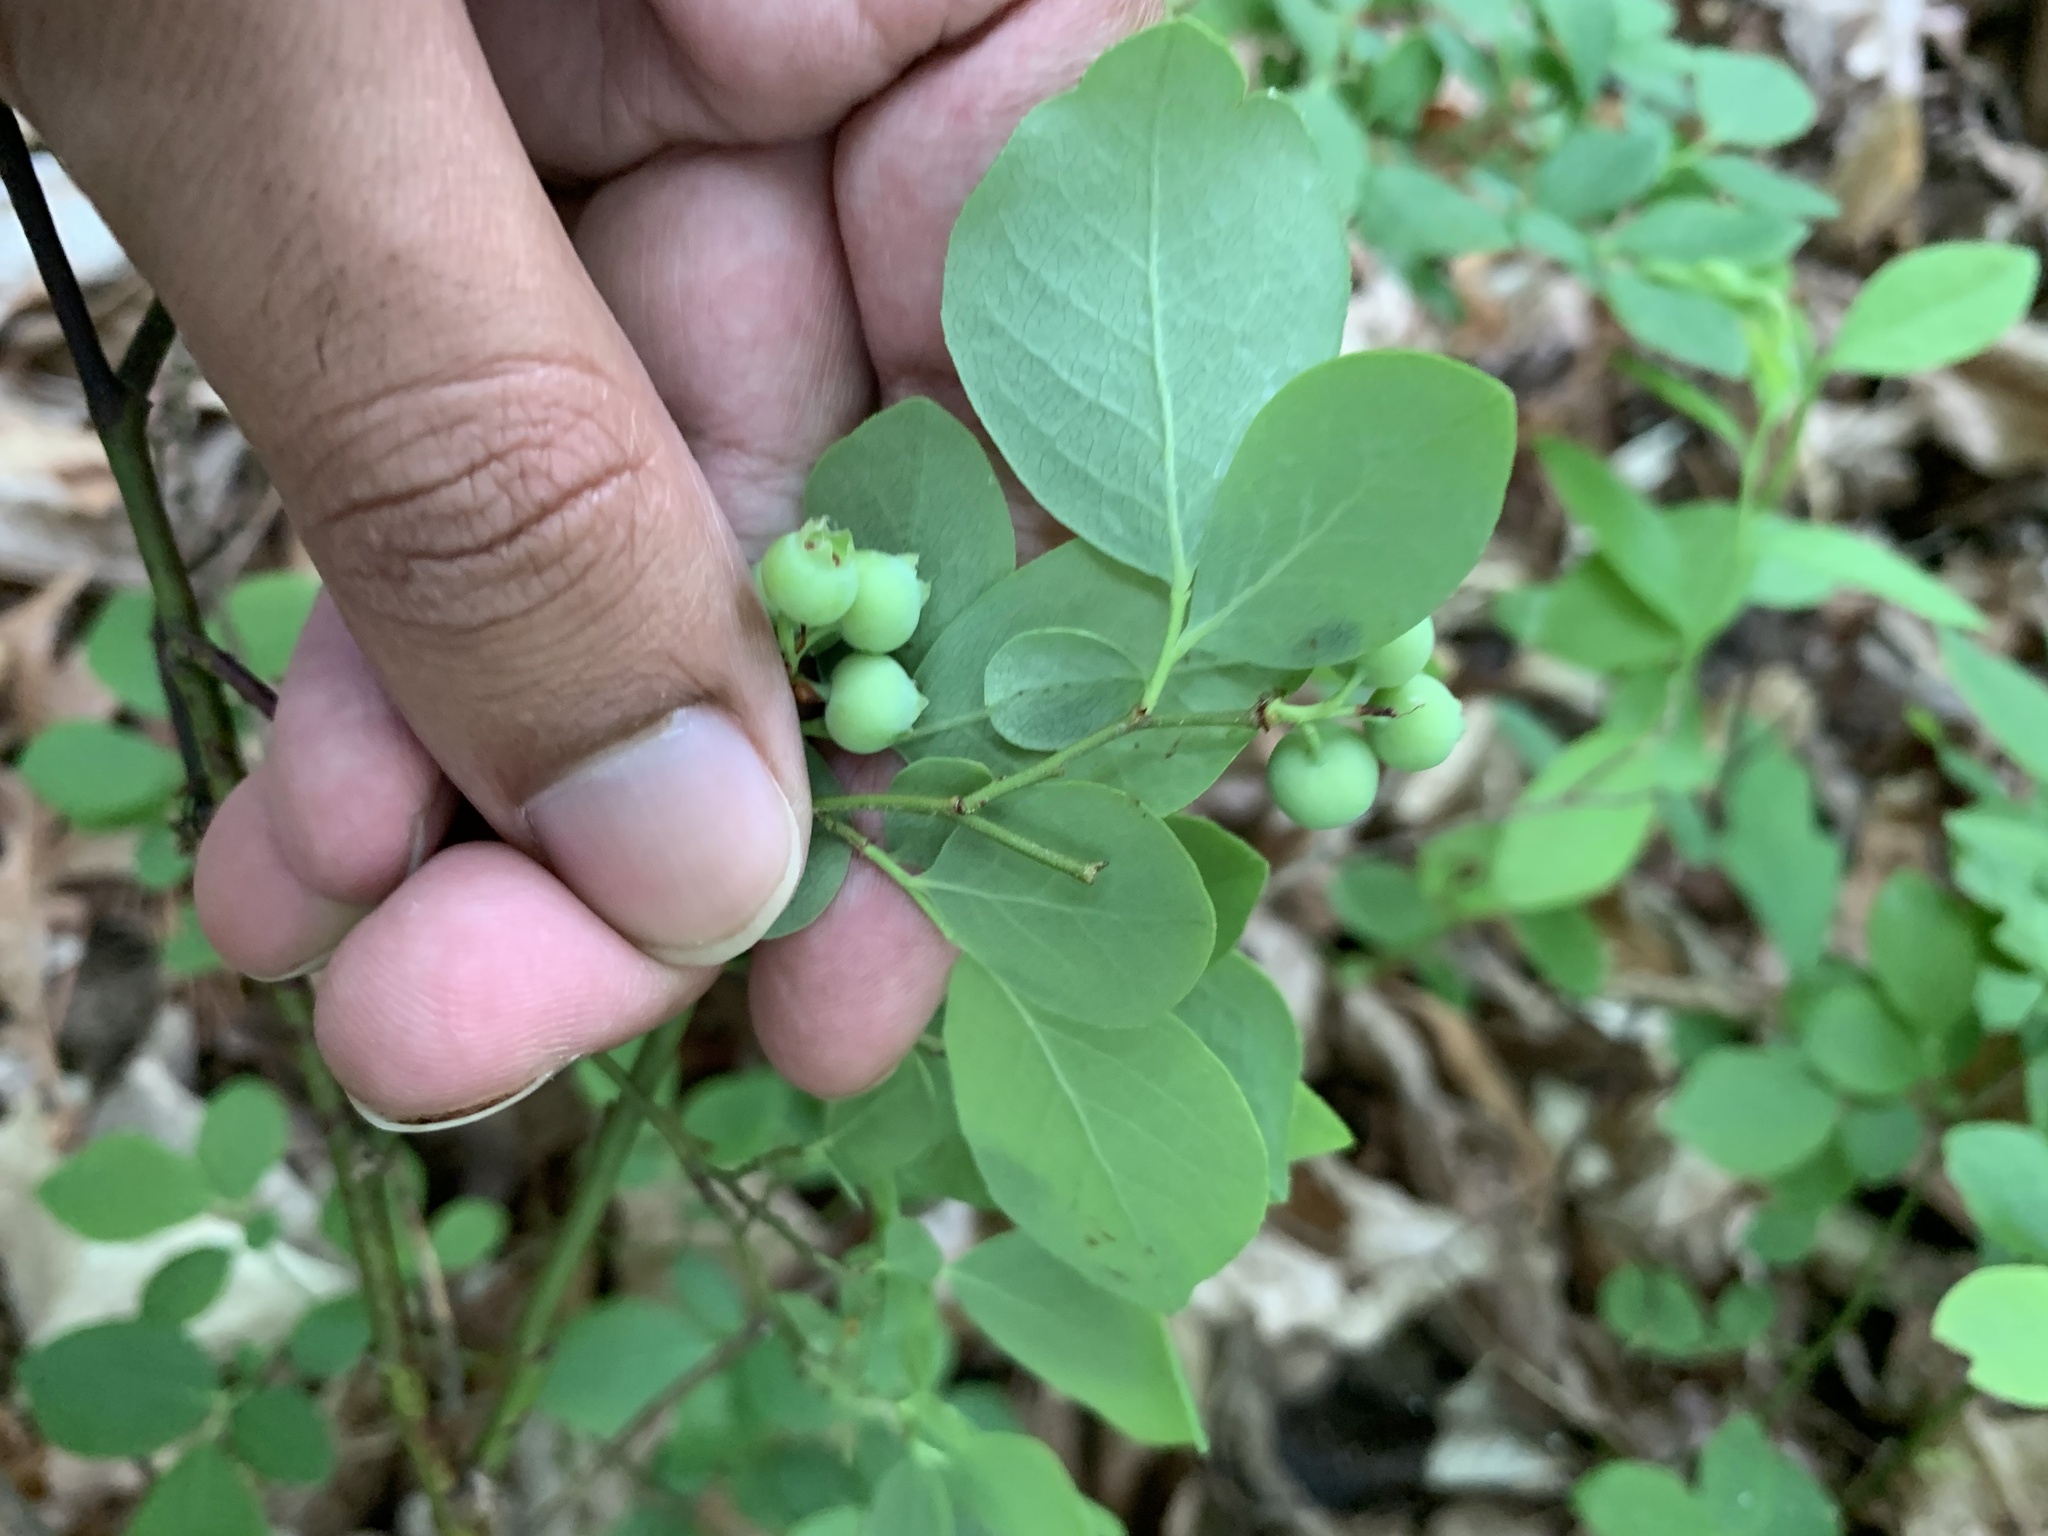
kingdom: Plantae
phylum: Tracheophyta
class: Magnoliopsida
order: Ericales
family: Ericaceae
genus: Vaccinium
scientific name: Vaccinium pallidum
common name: Blue ridge blueberry
